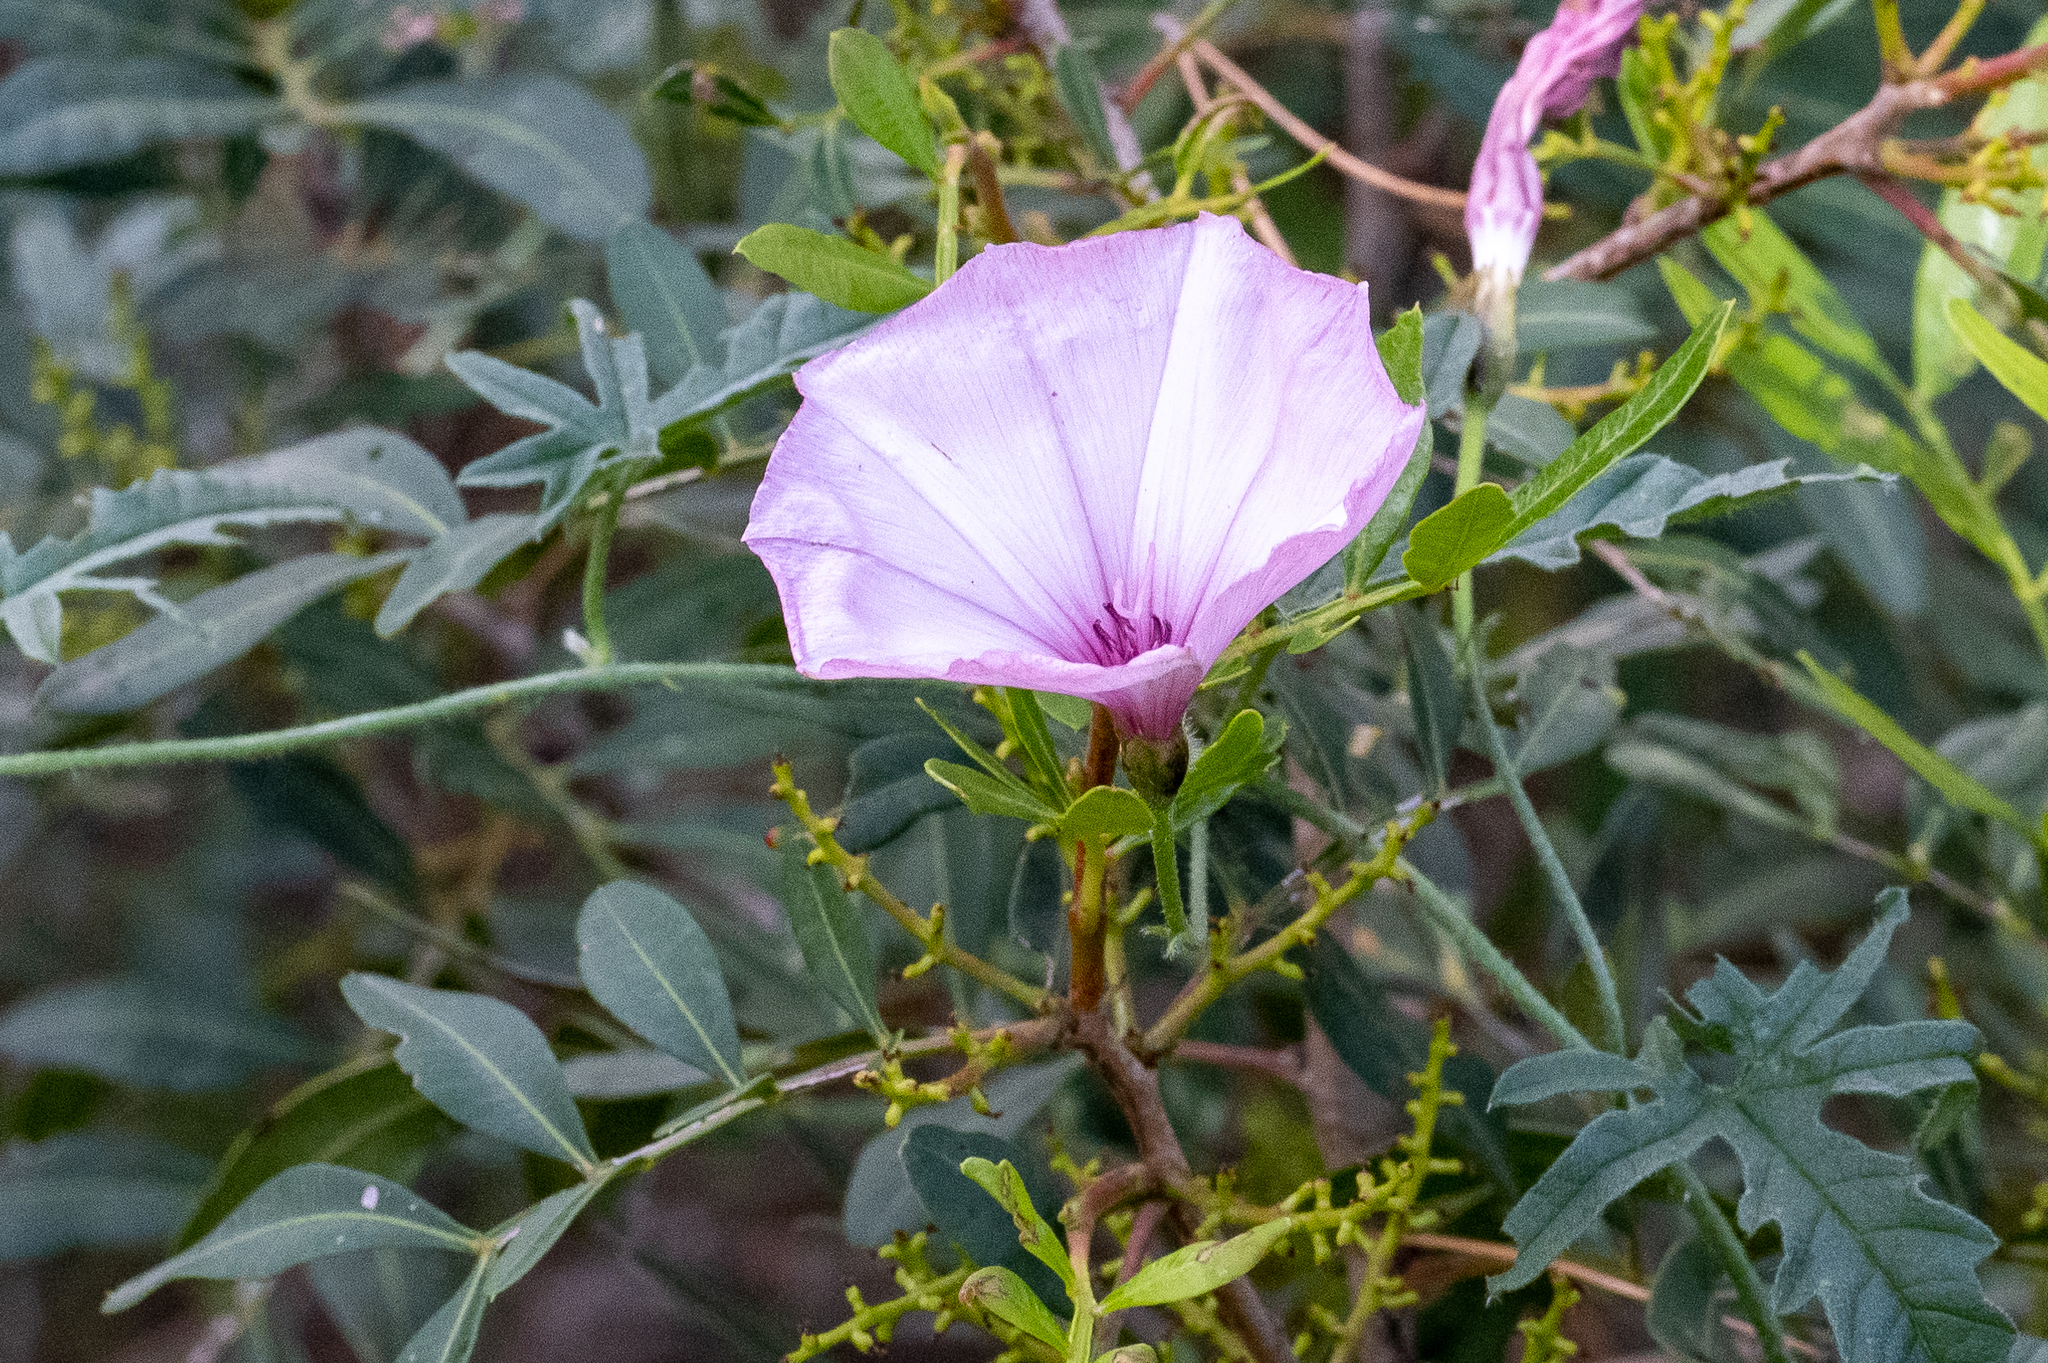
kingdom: Plantae
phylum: Tracheophyta
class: Magnoliopsida
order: Solanales
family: Convolvulaceae
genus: Convolvulus
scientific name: Convolvulus althaeoides
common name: Mallow bindweed
